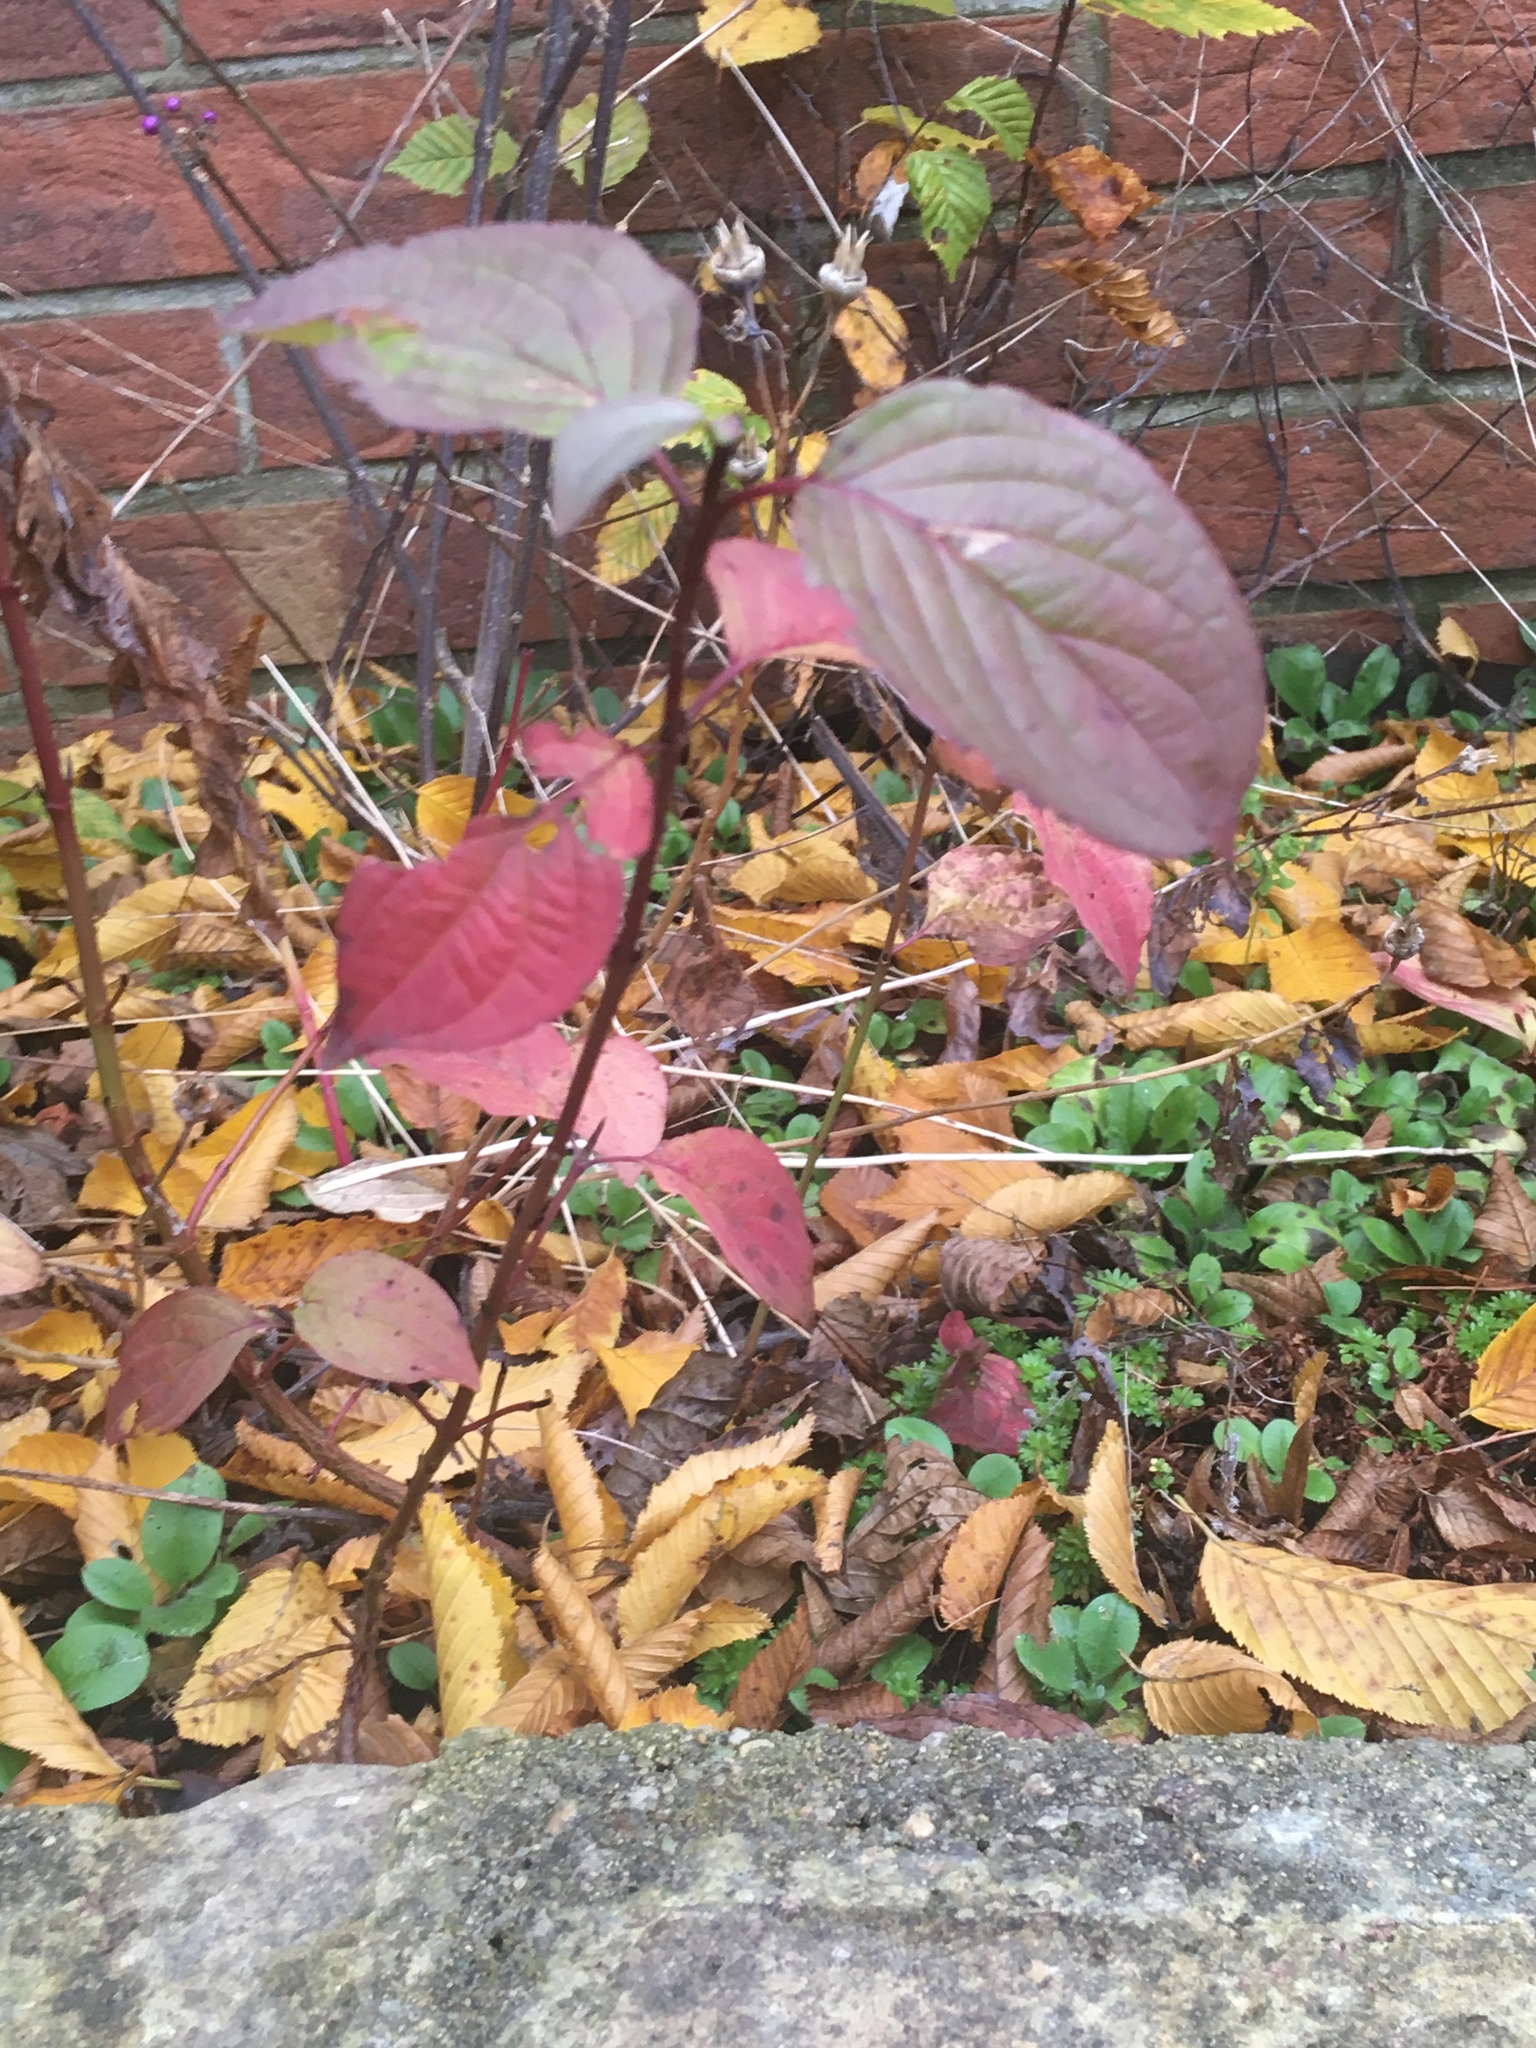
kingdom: Plantae
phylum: Tracheophyta
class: Magnoliopsida
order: Cornales
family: Cornaceae
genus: Cornus
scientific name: Cornus sanguinea
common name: Dogwood
